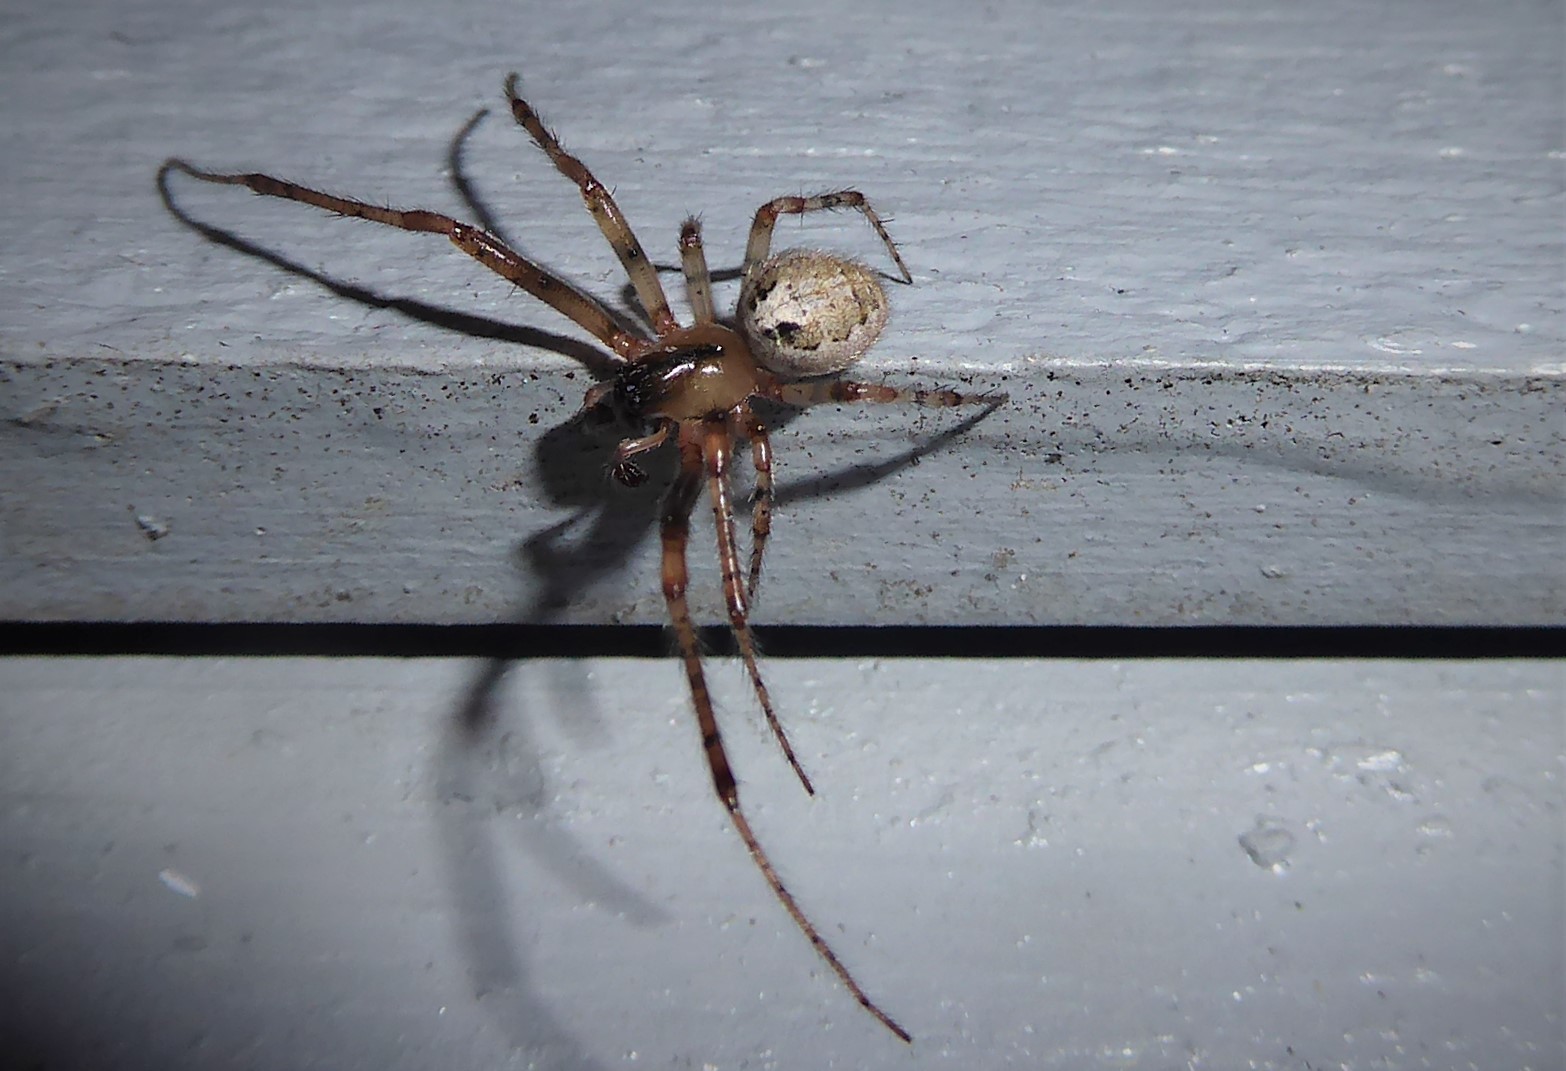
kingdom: Animalia
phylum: Arthropoda
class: Arachnida
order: Araneae
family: Araneidae
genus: Zygiella
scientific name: Zygiella x-notata
